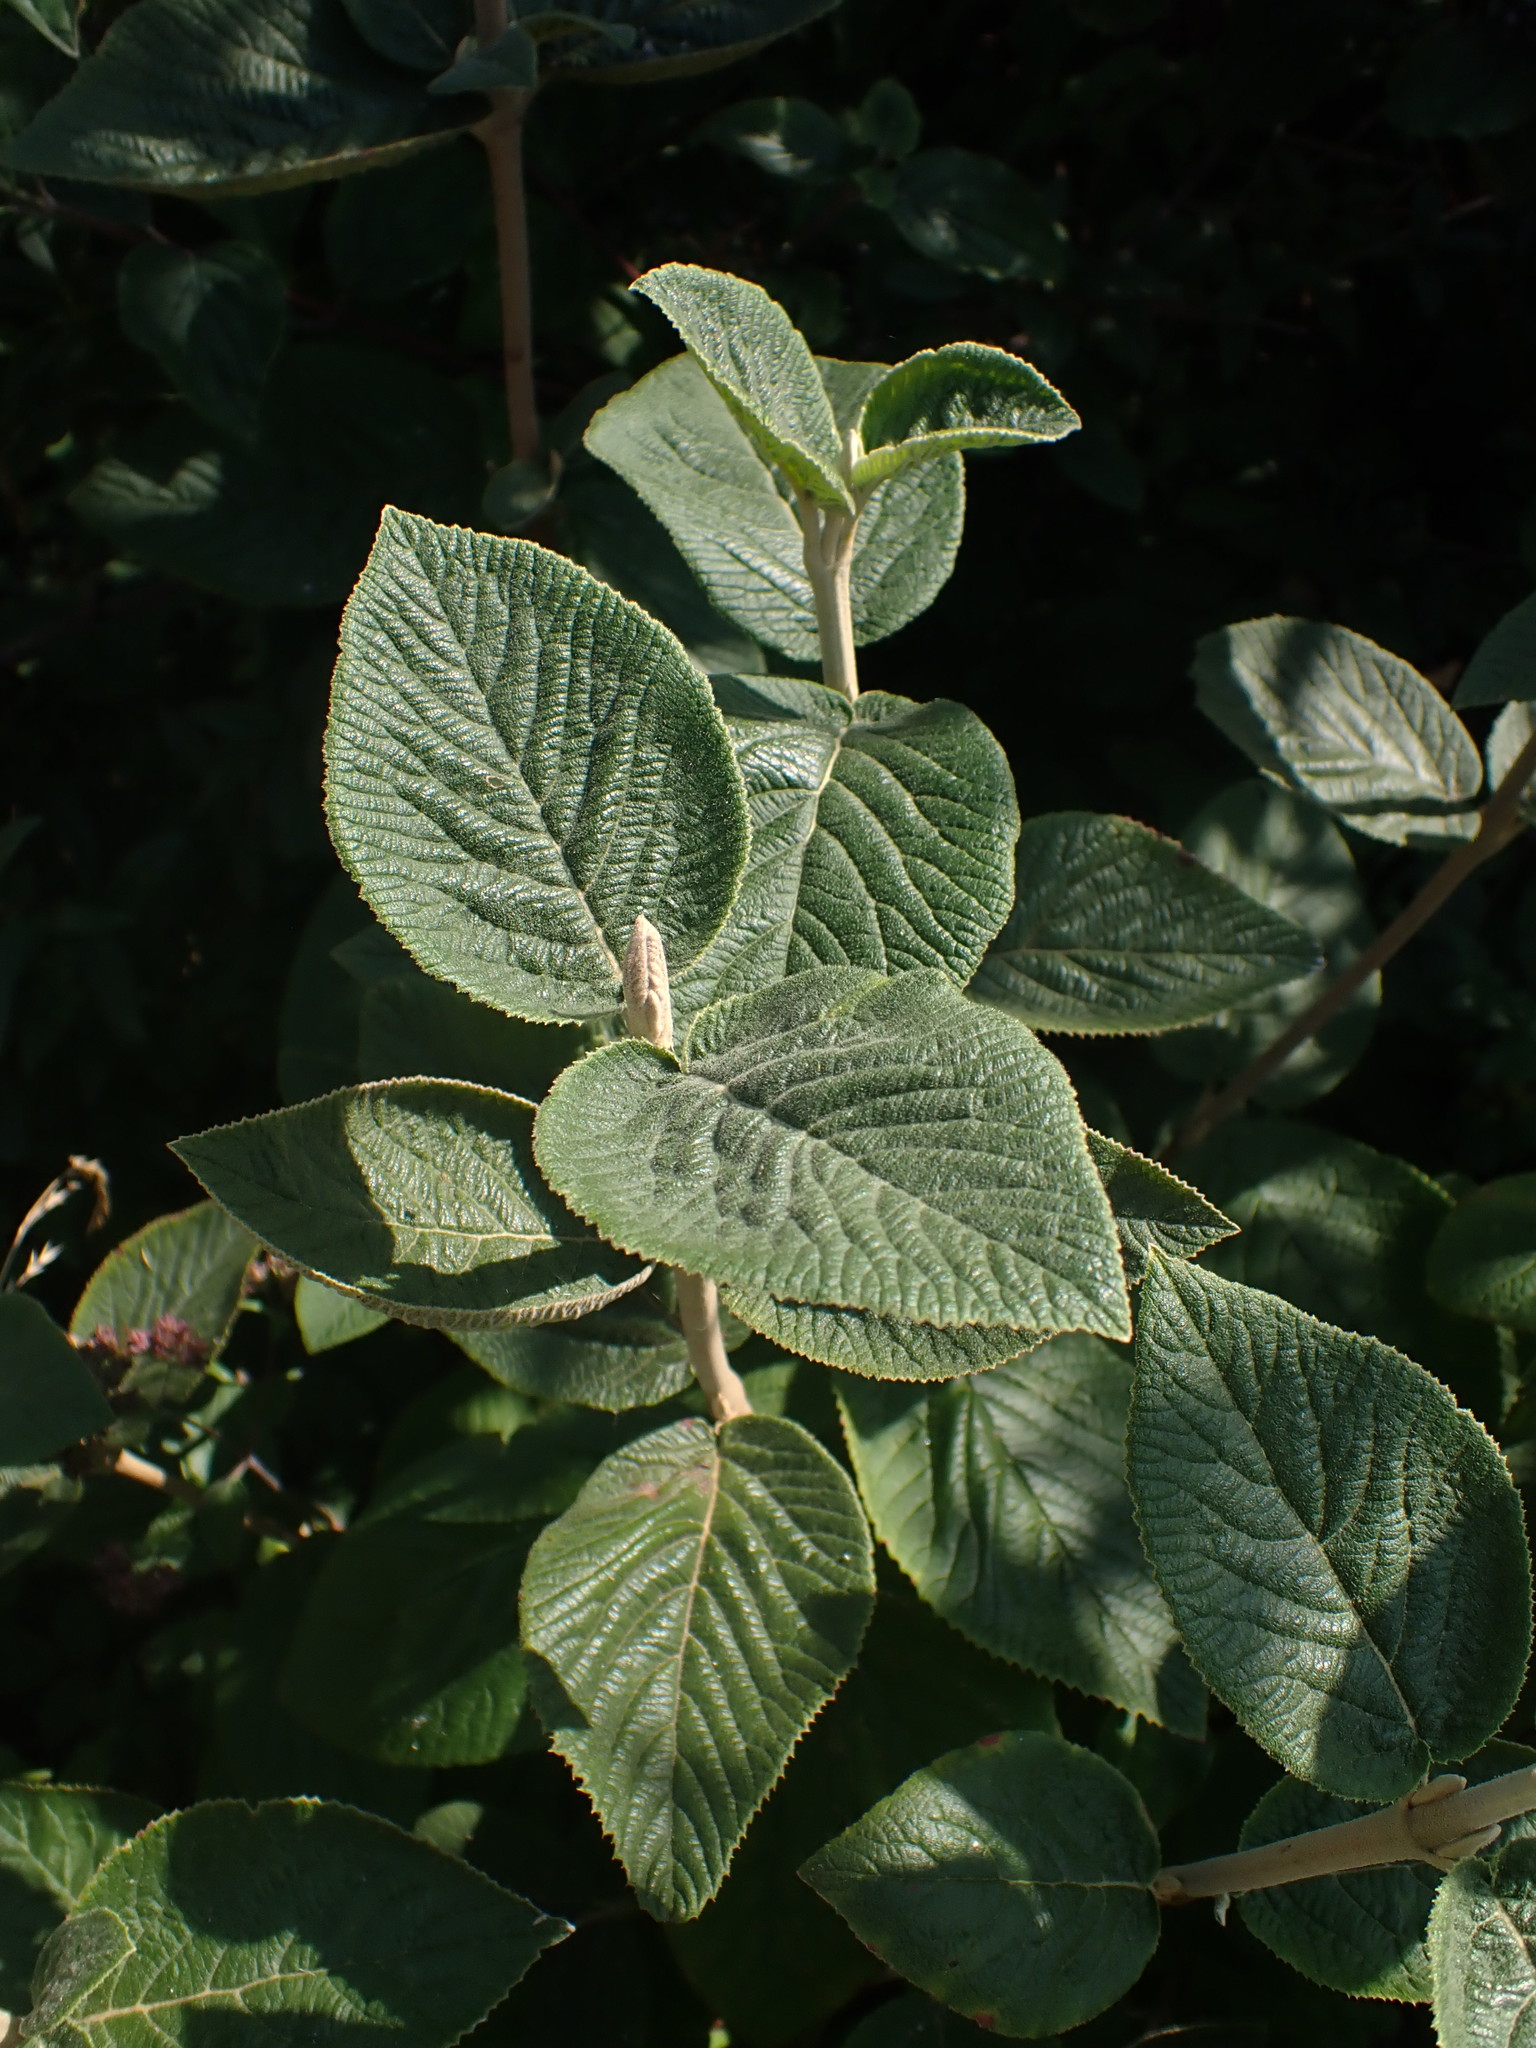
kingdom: Plantae
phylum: Tracheophyta
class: Magnoliopsida
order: Dipsacales
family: Viburnaceae
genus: Viburnum
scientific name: Viburnum lantana
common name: Wayfaring tree
